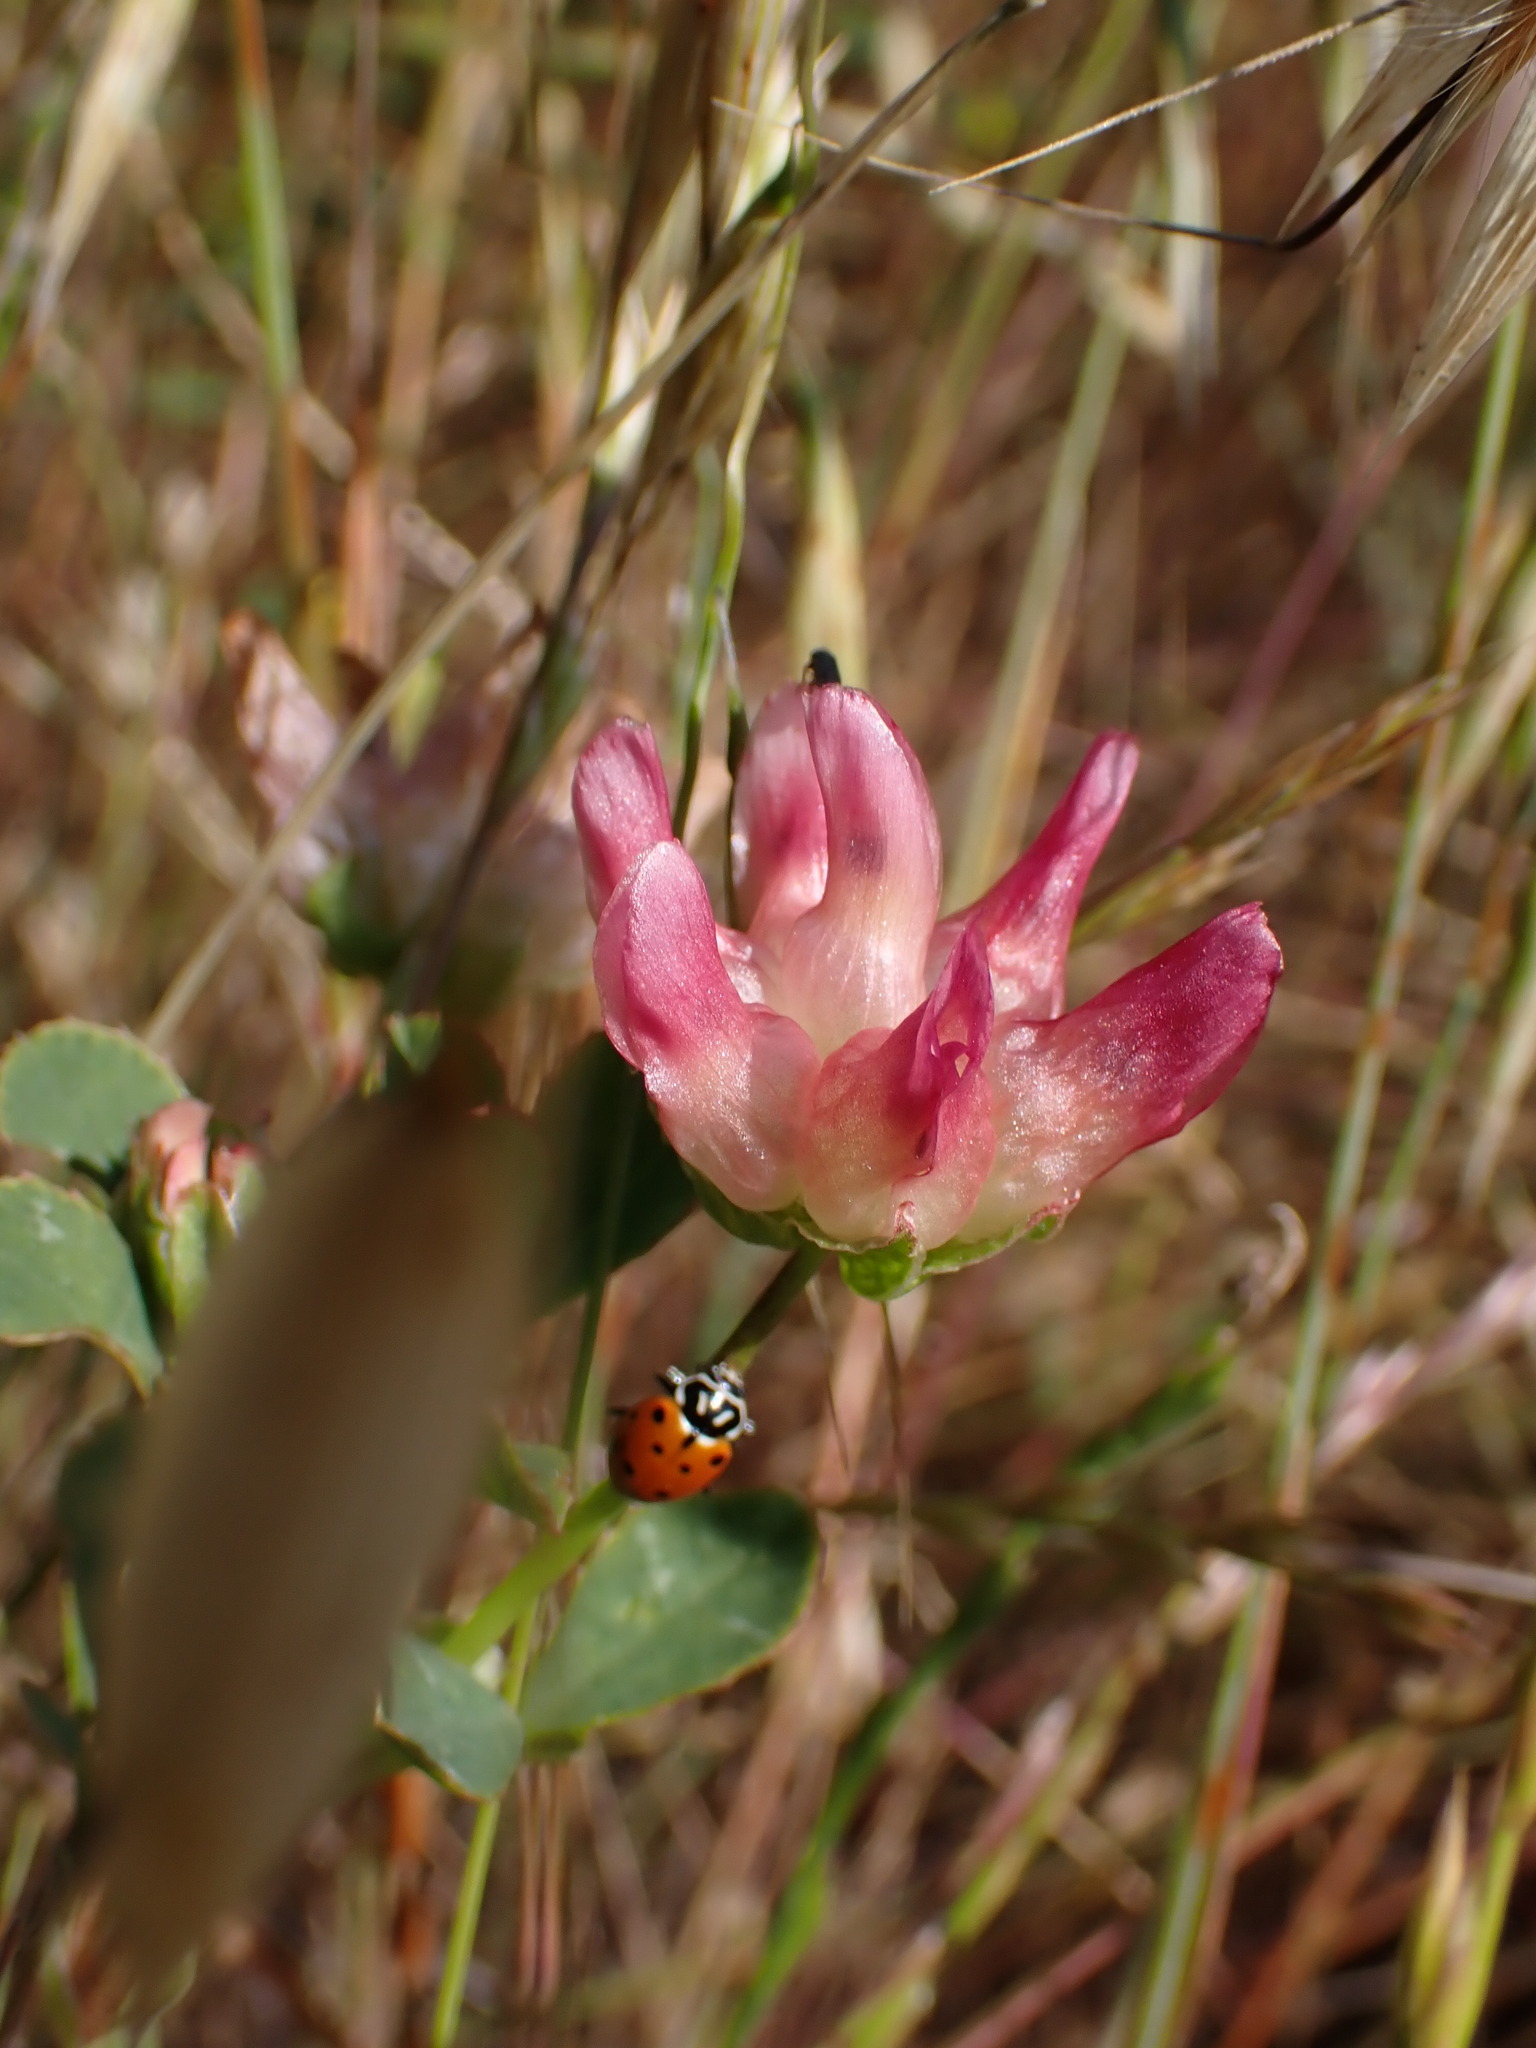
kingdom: Plantae
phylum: Tracheophyta
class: Magnoliopsida
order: Fabales
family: Fabaceae
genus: Trifolium
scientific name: Trifolium fucatum
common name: Puff clover
